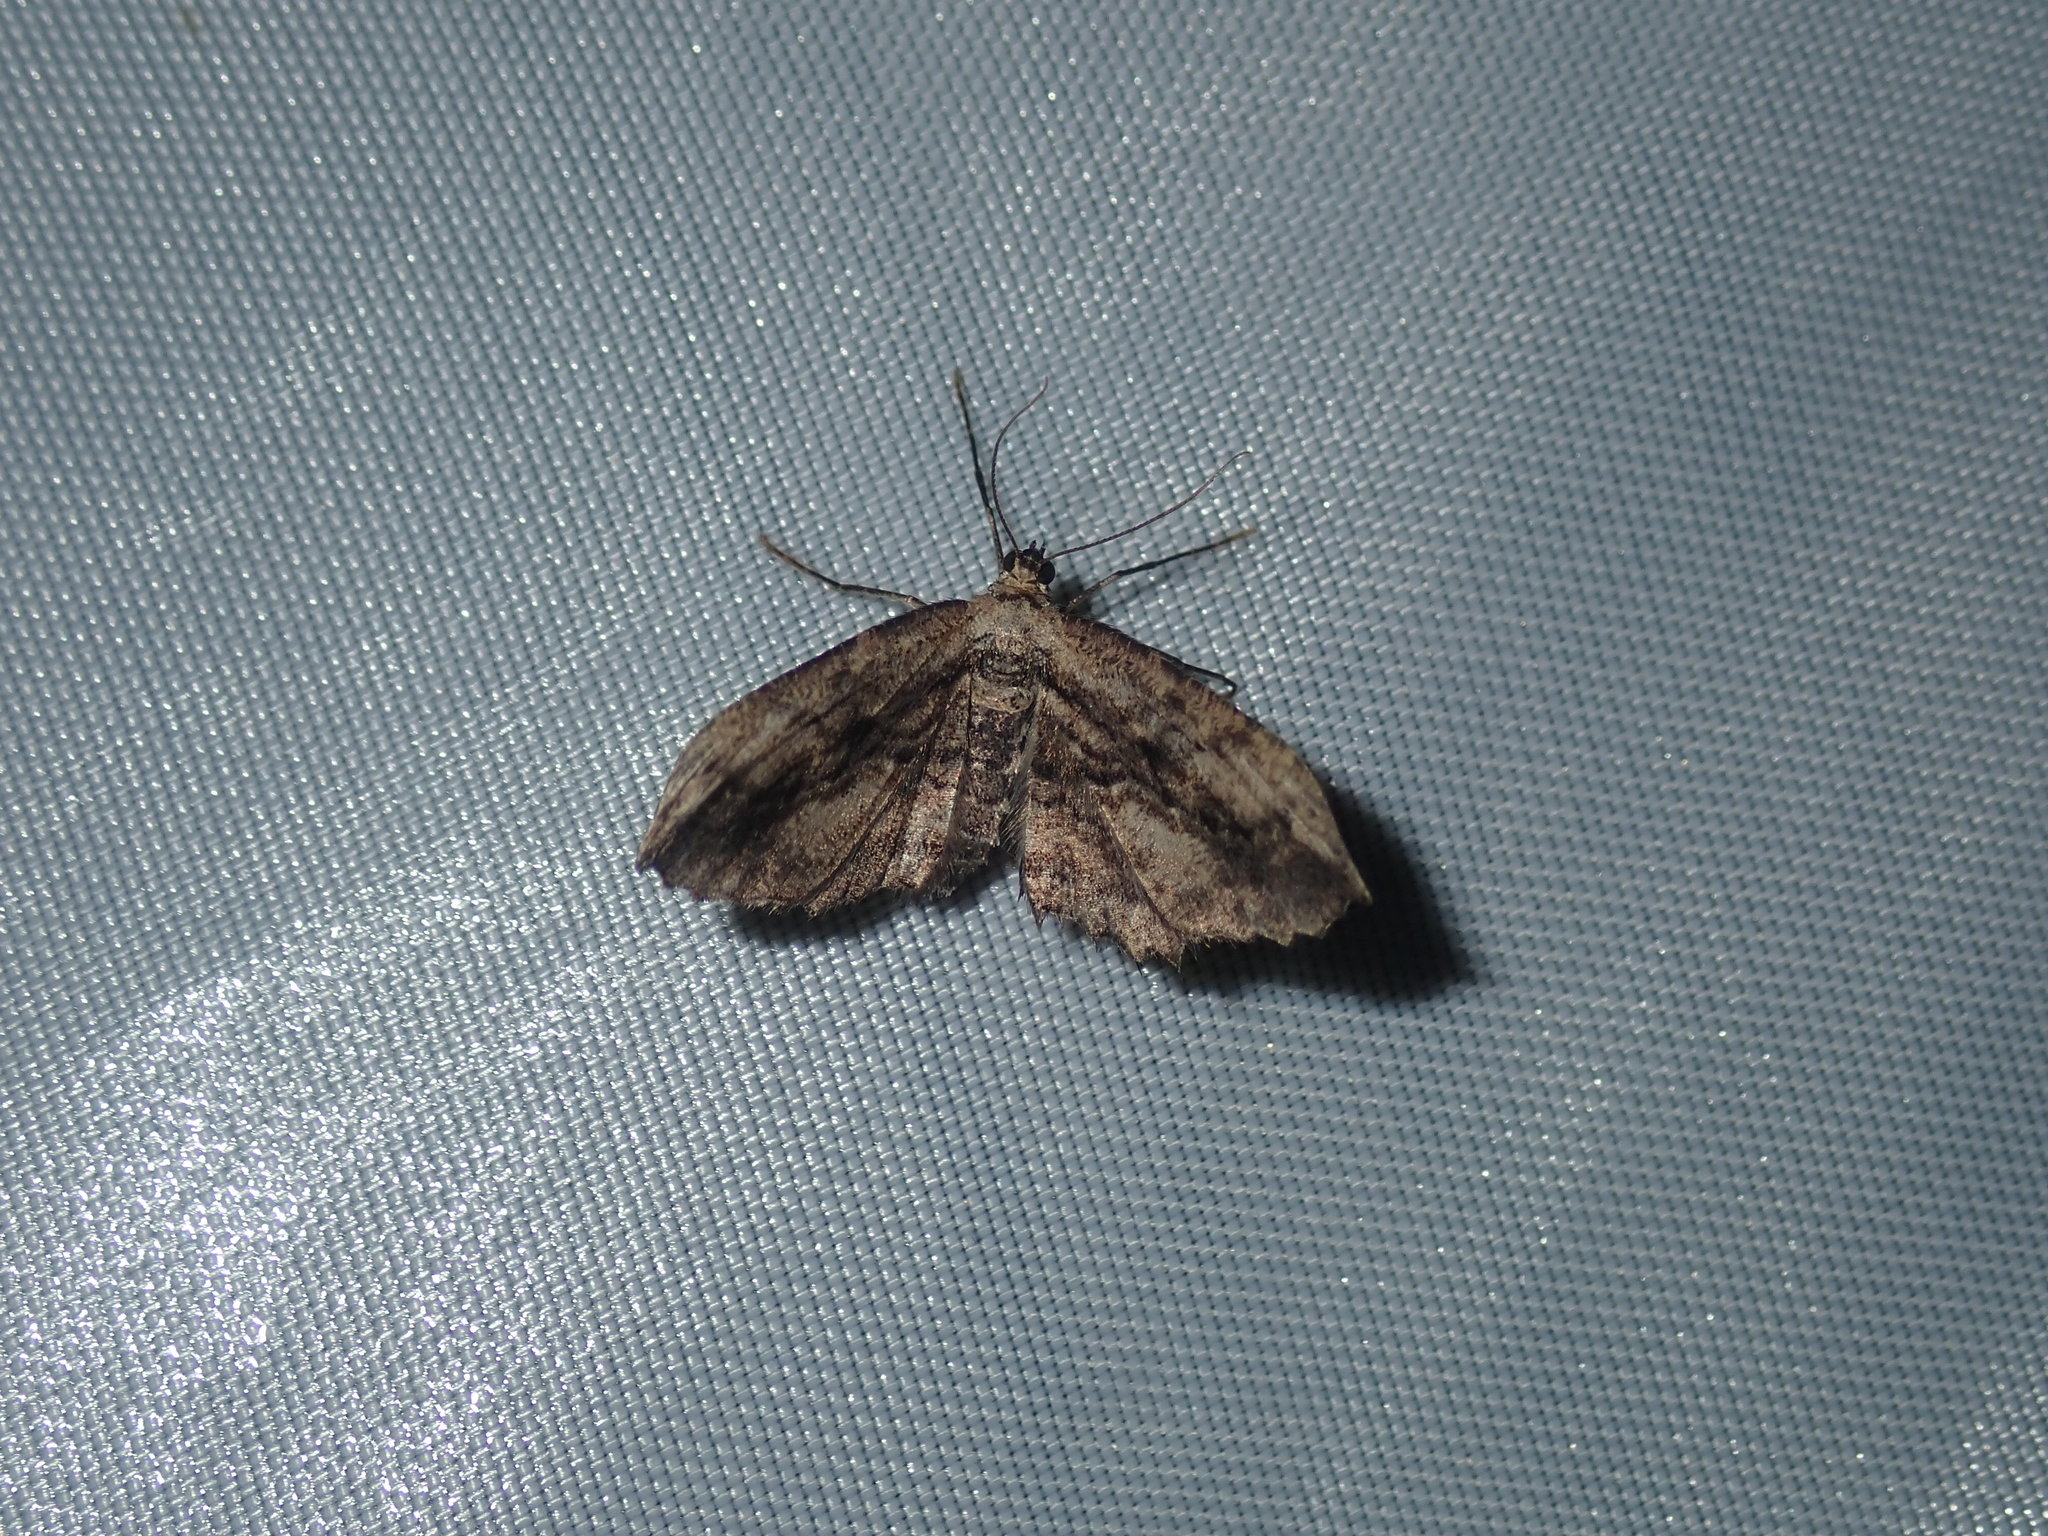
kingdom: Animalia
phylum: Arthropoda
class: Insecta
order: Lepidoptera
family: Geometridae
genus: Ectropis
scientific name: Ectropis lignea
